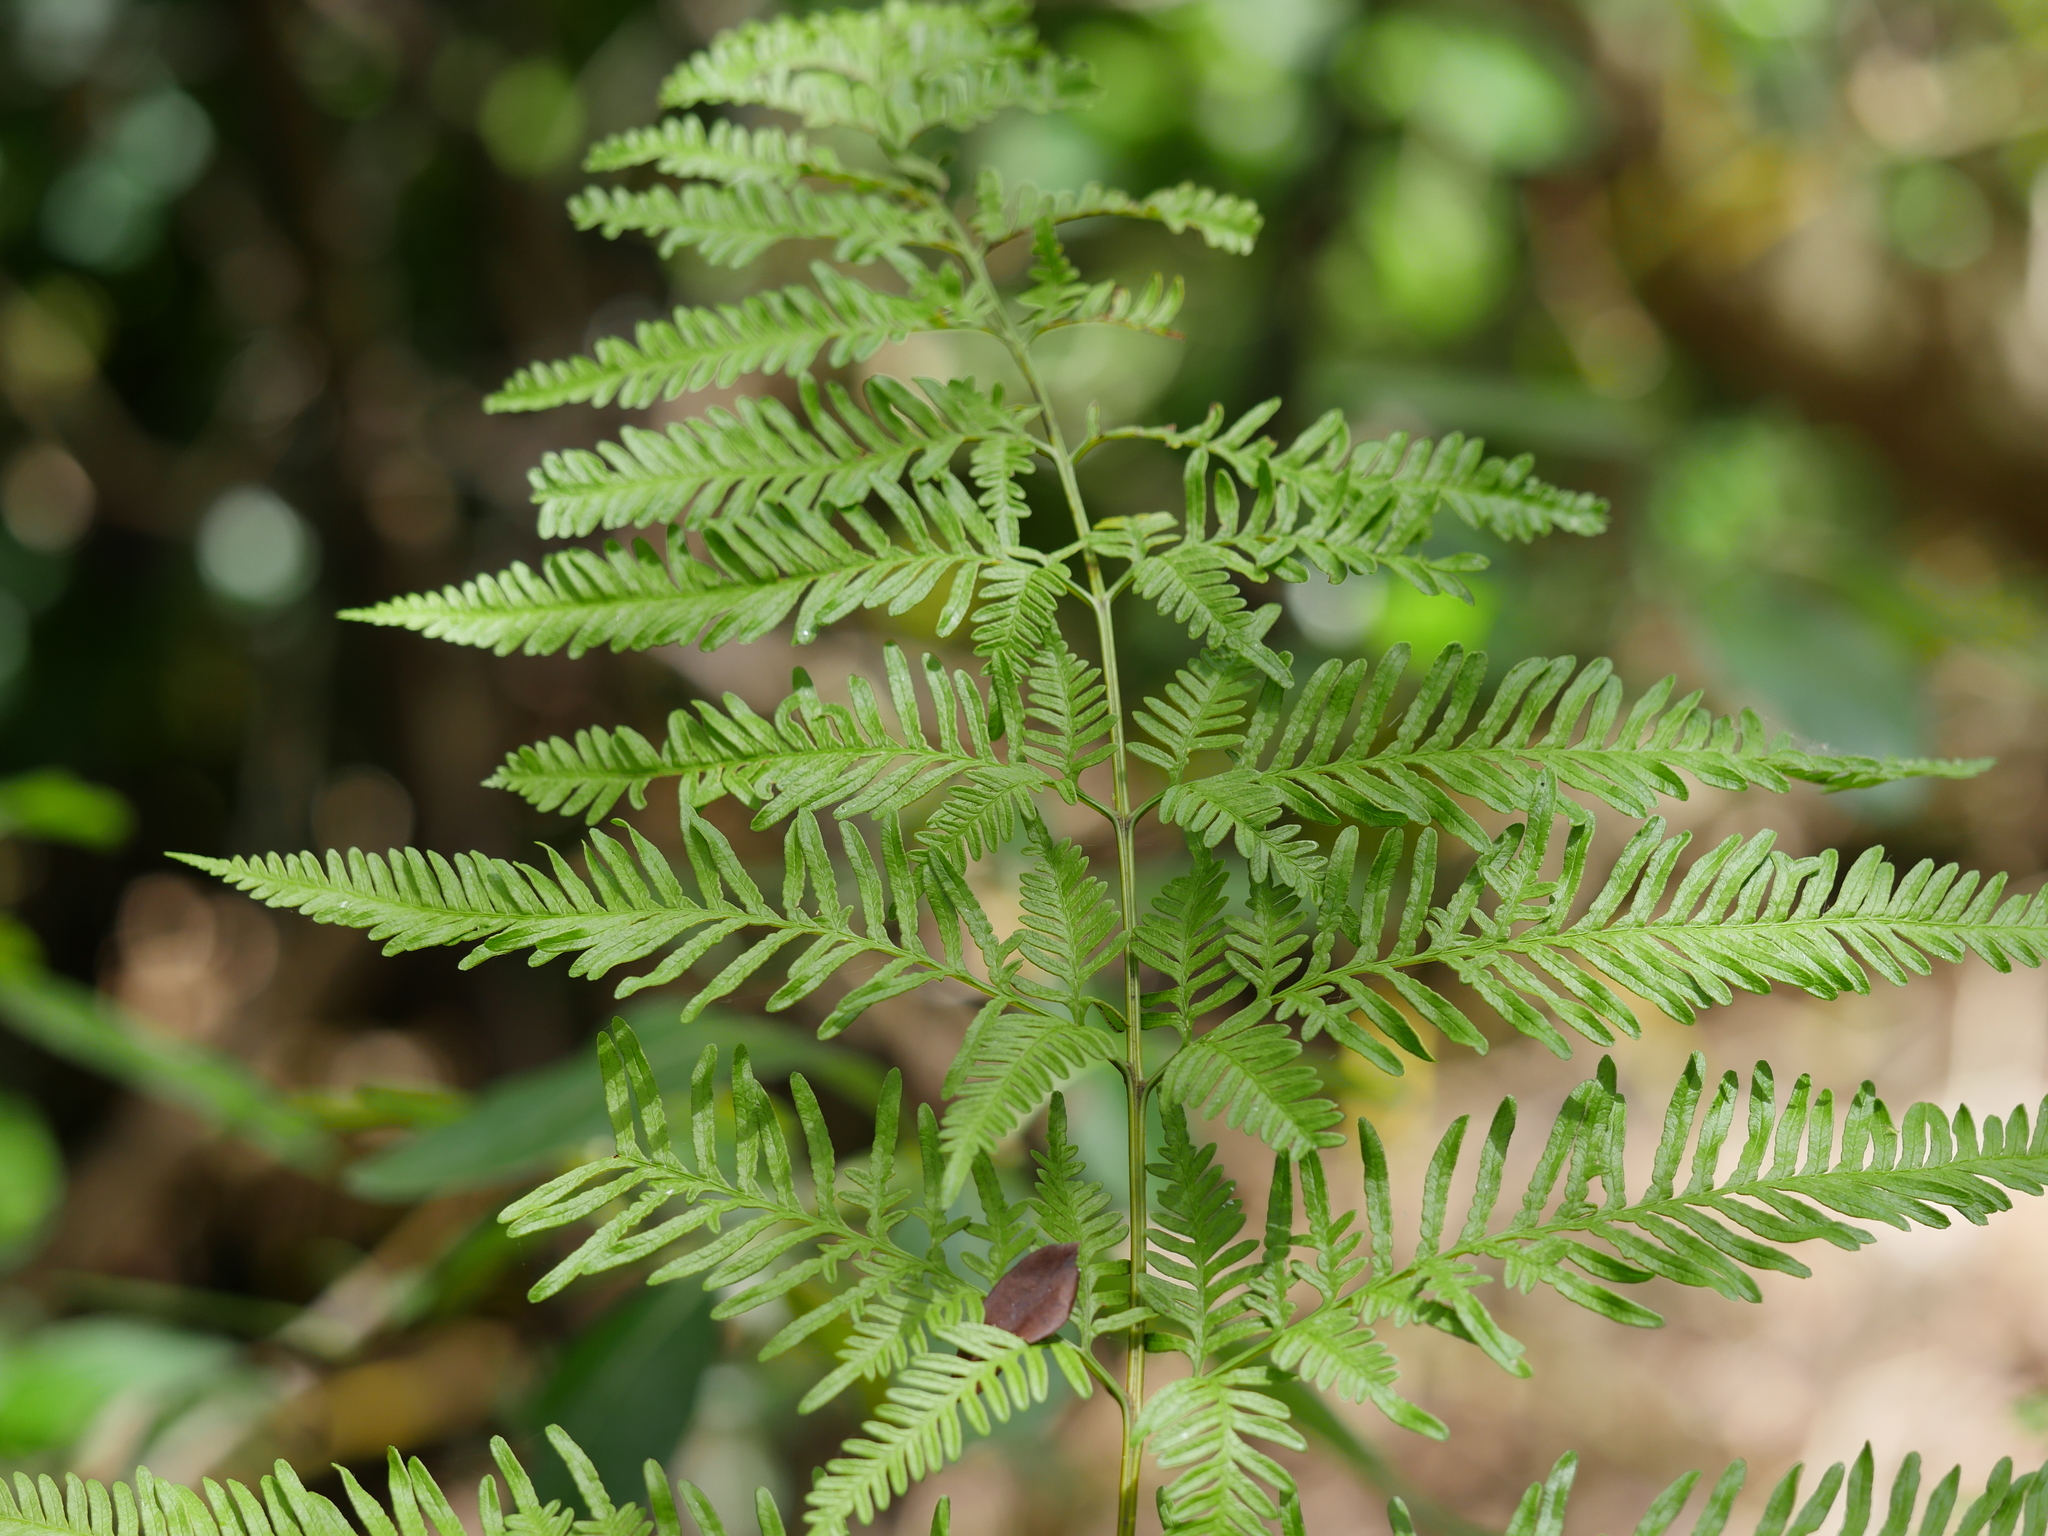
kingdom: Plantae
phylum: Tracheophyta
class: Polypodiopsida
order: Polypodiales
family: Pteridaceae
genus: Pteris
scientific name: Pteris tremula
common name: Australian brake
